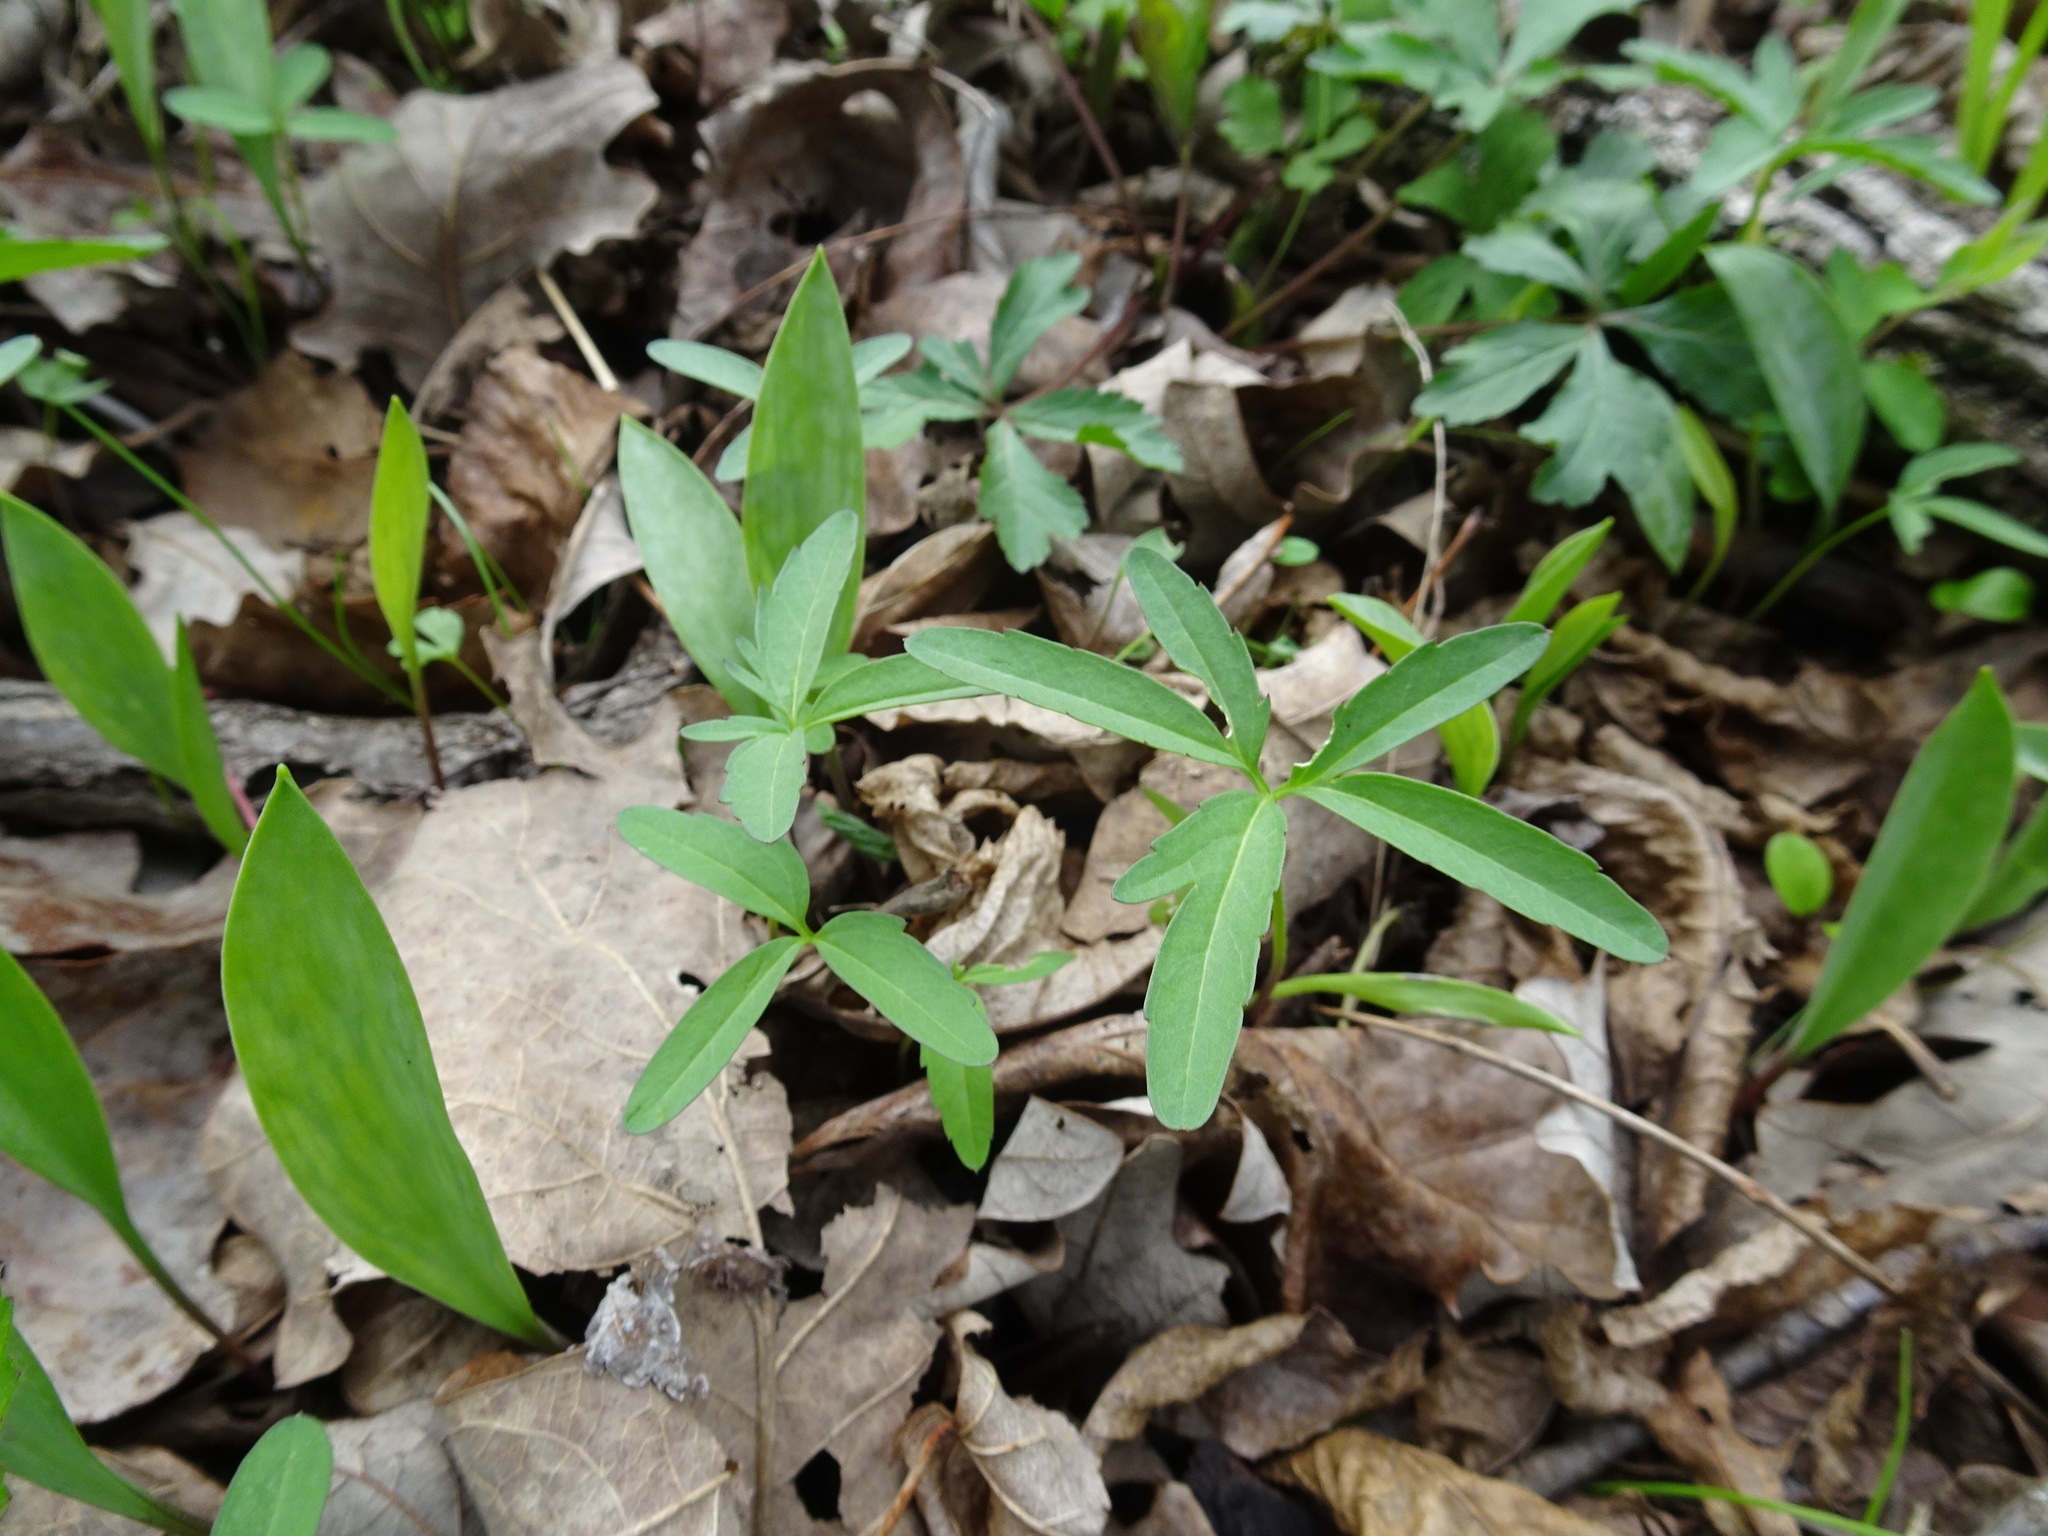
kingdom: Plantae
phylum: Tracheophyta
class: Magnoliopsida
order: Brassicales
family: Brassicaceae
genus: Cardamine
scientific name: Cardamine concatenata
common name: Cut-leaf toothcup
